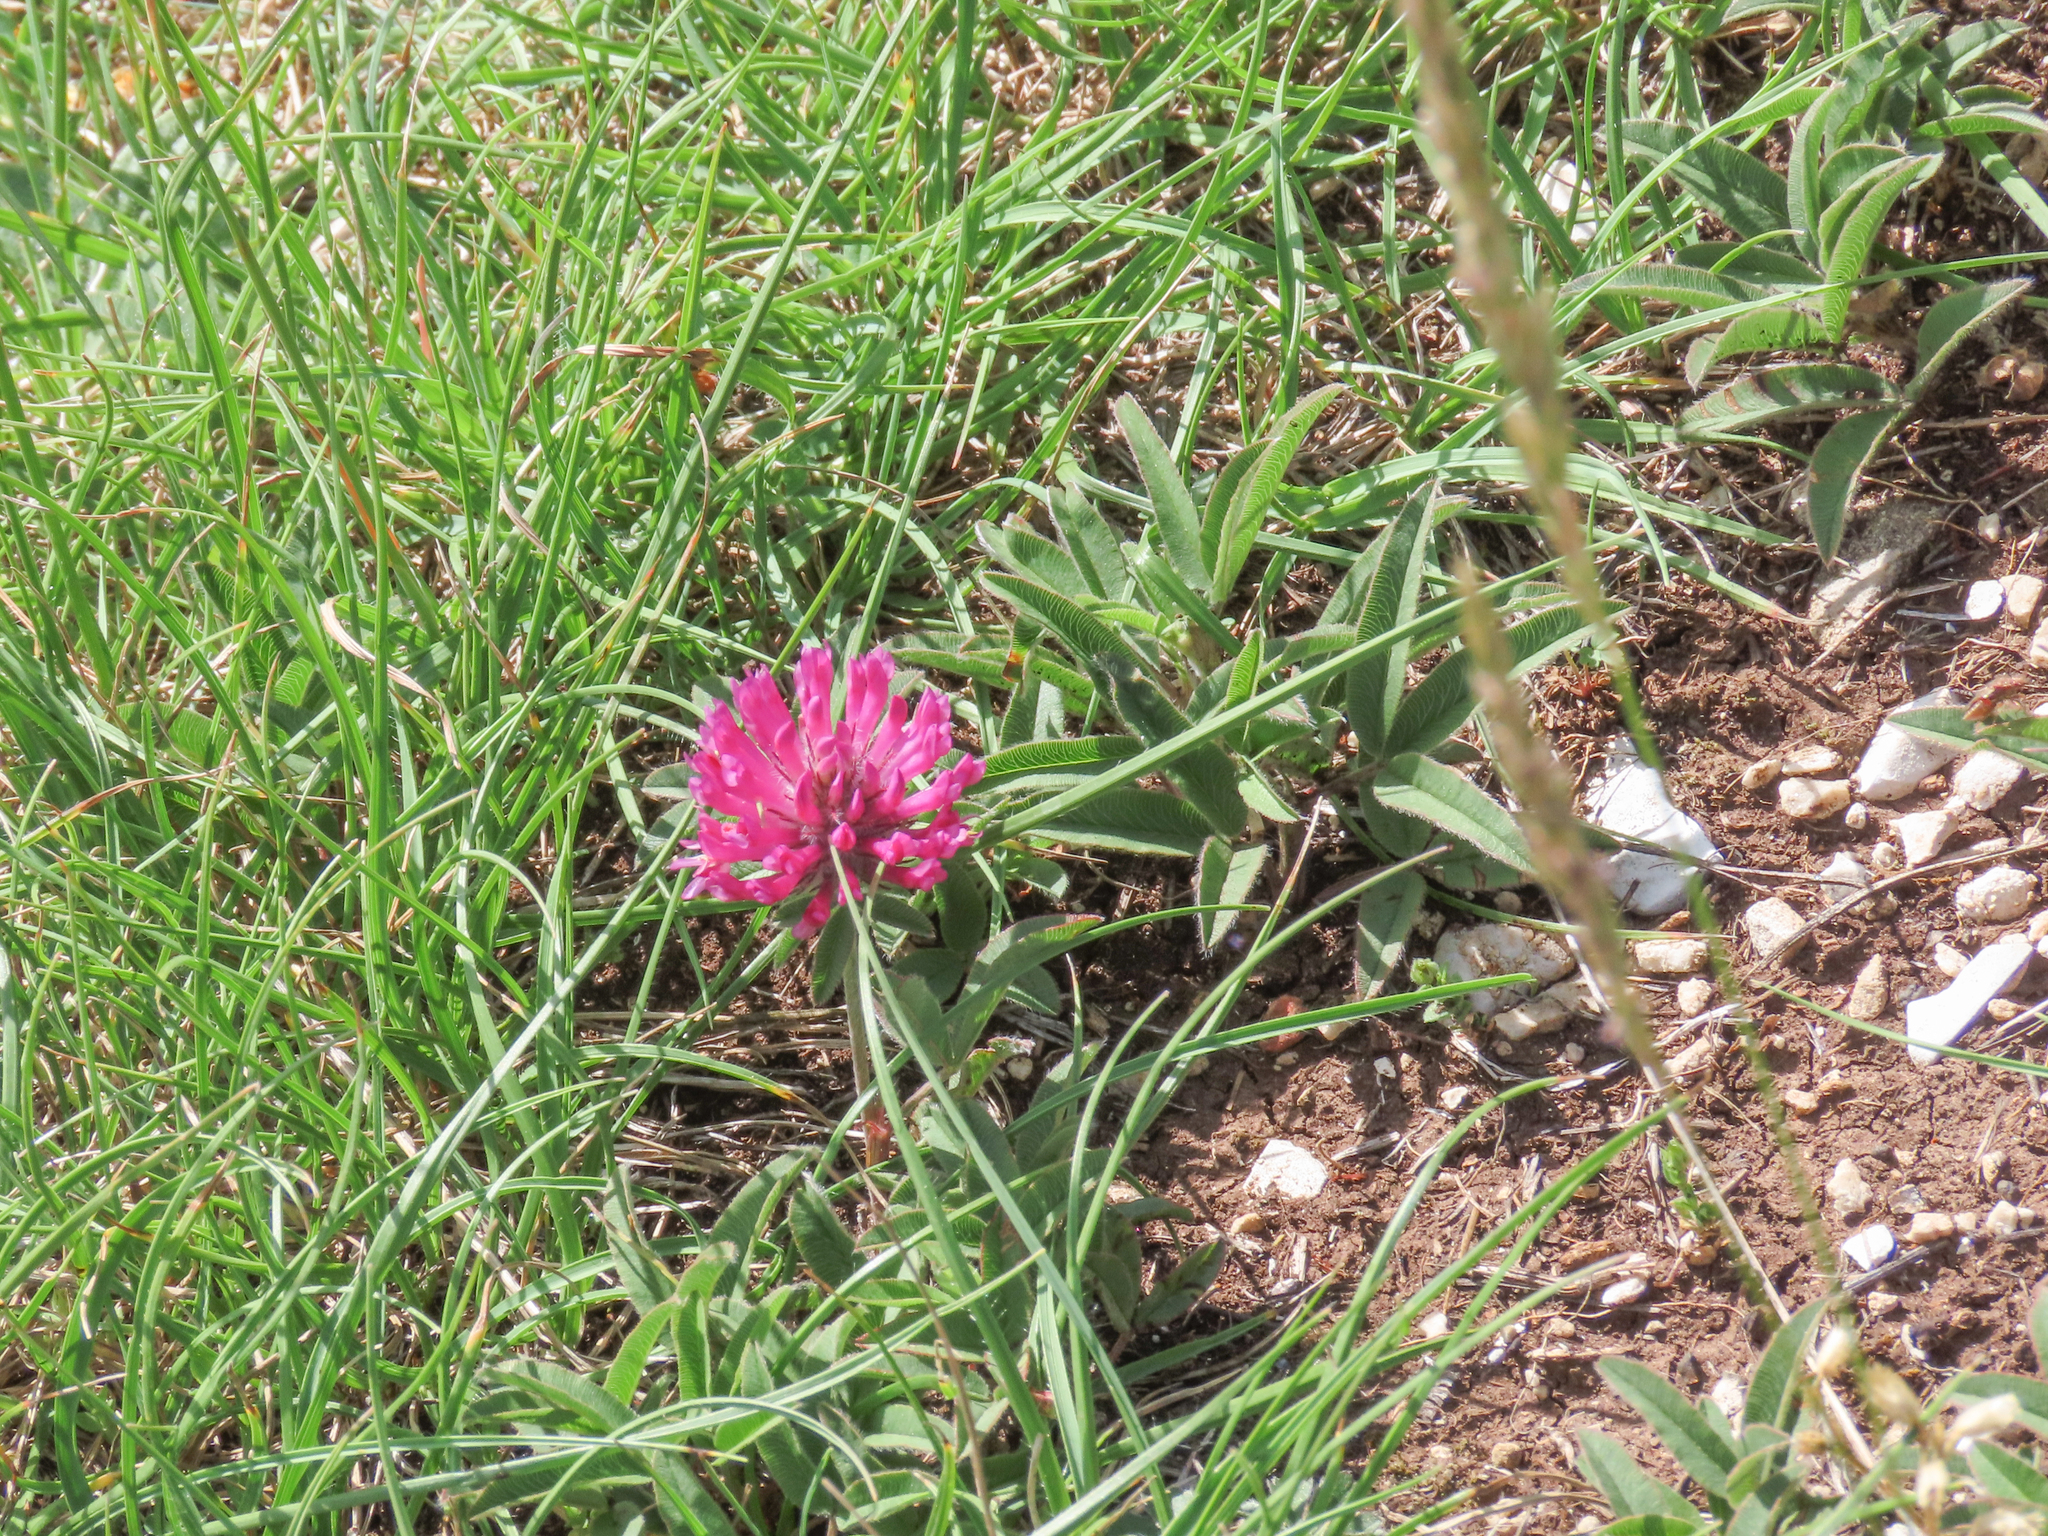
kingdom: Plantae
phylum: Tracheophyta
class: Magnoliopsida
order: Fabales
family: Fabaceae
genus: Trifolium
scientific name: Trifolium alpestre
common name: Owl-head clover
